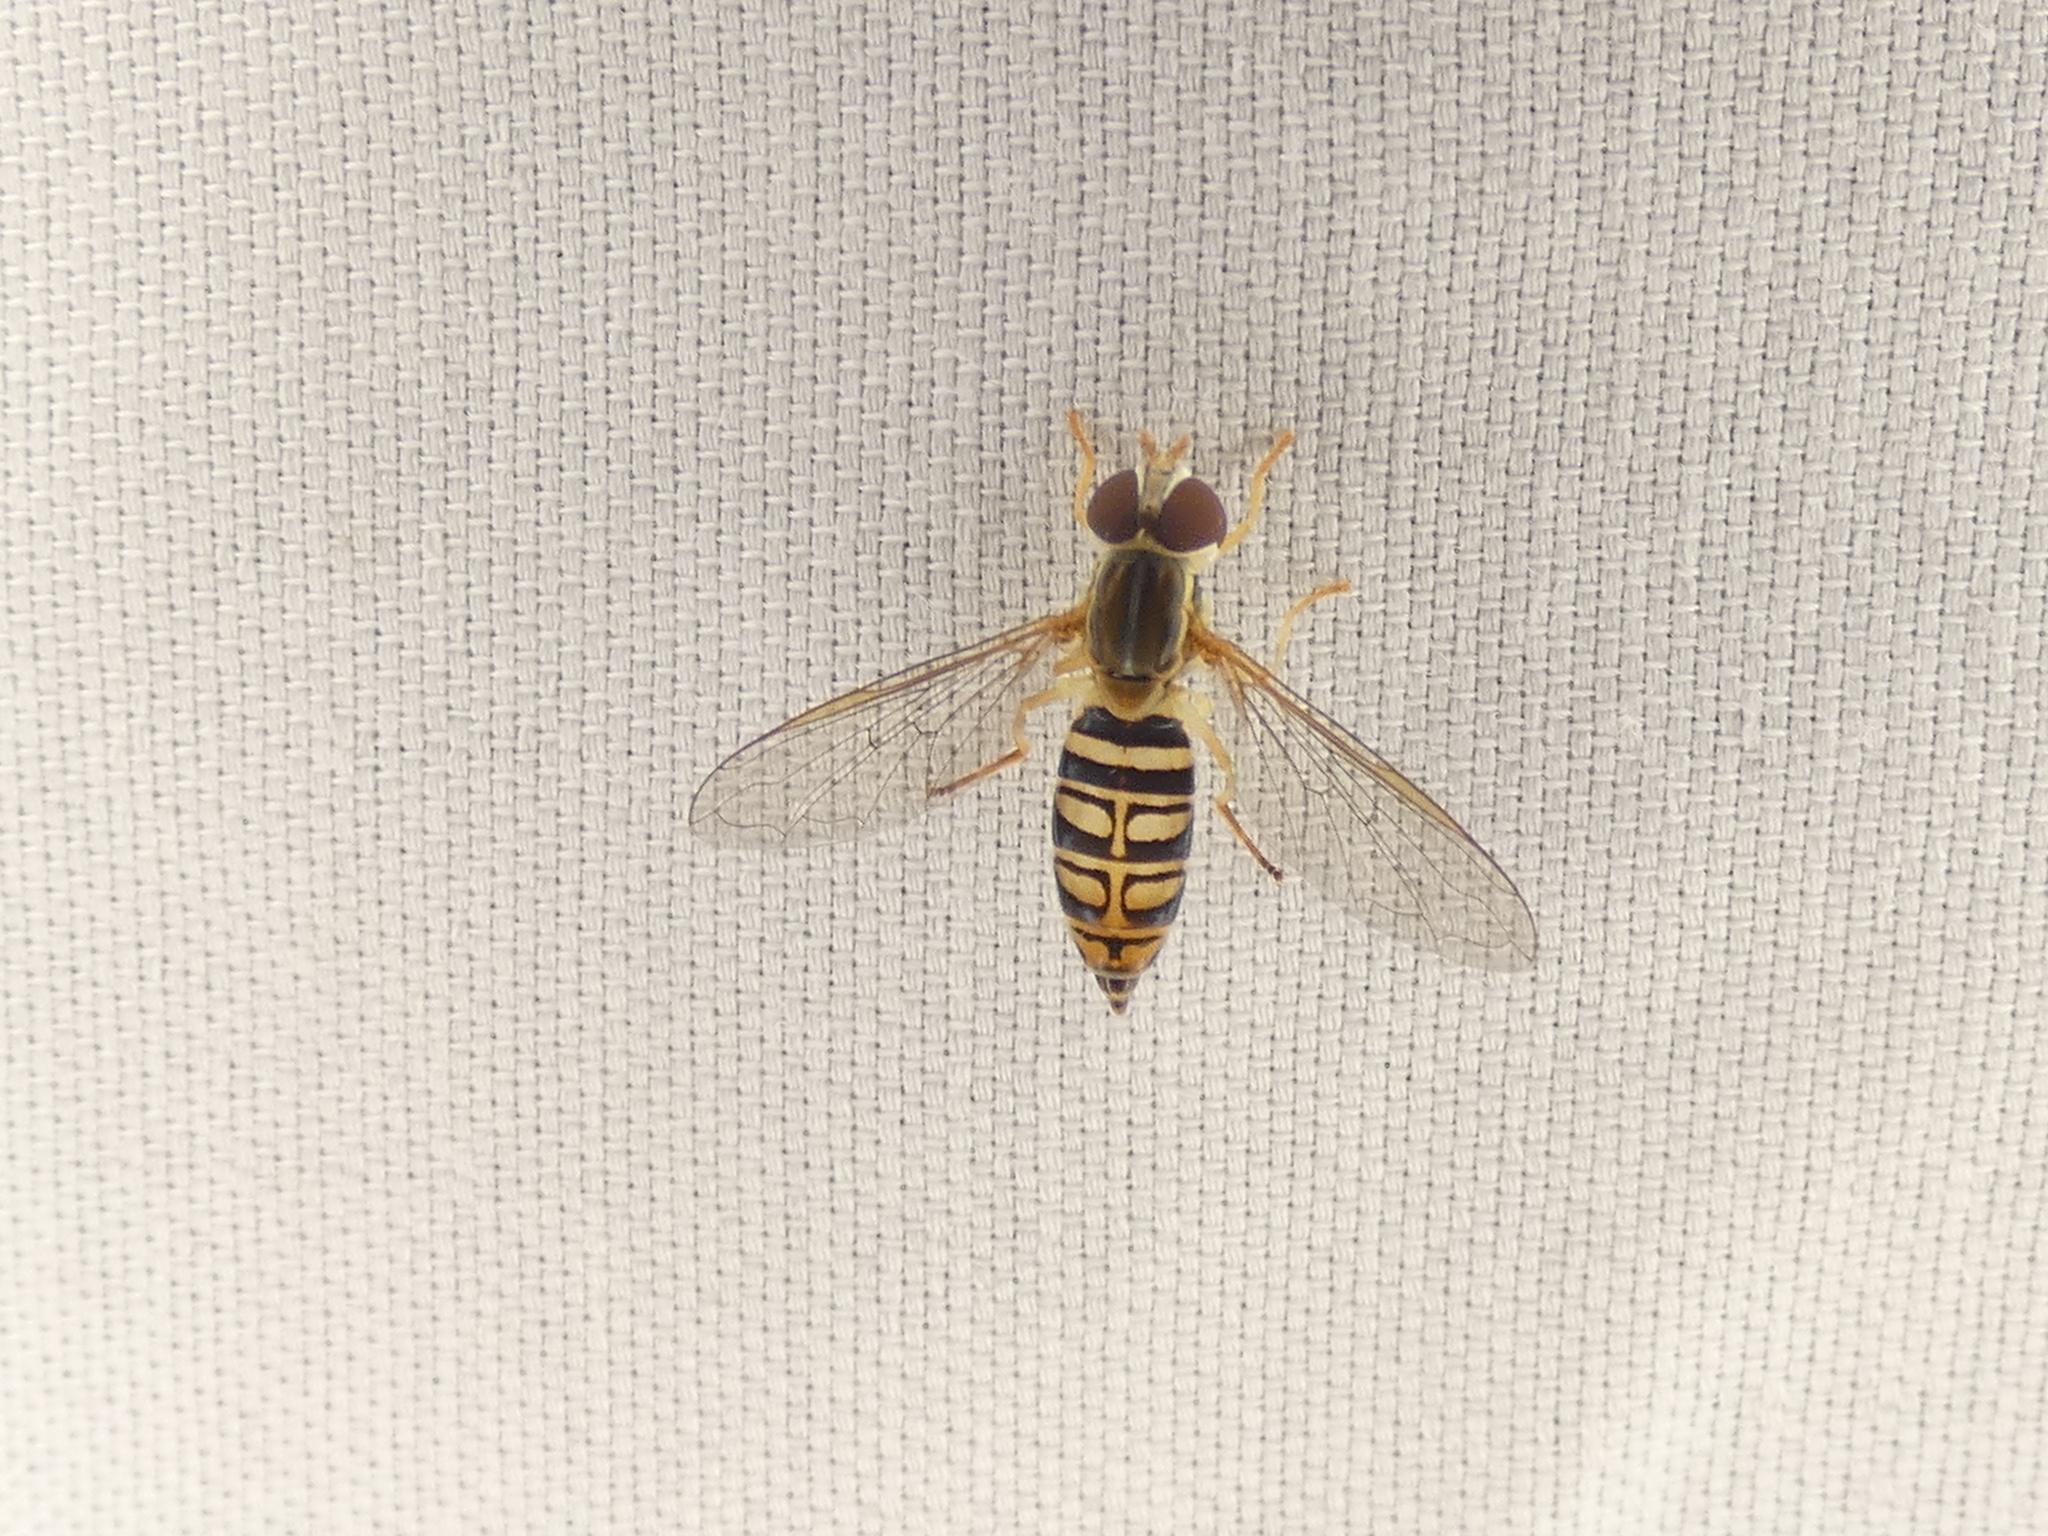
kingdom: Animalia
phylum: Arthropoda
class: Insecta
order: Diptera
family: Syrphidae
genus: Toxomerus
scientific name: Toxomerus politus
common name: Maize calligrapher
